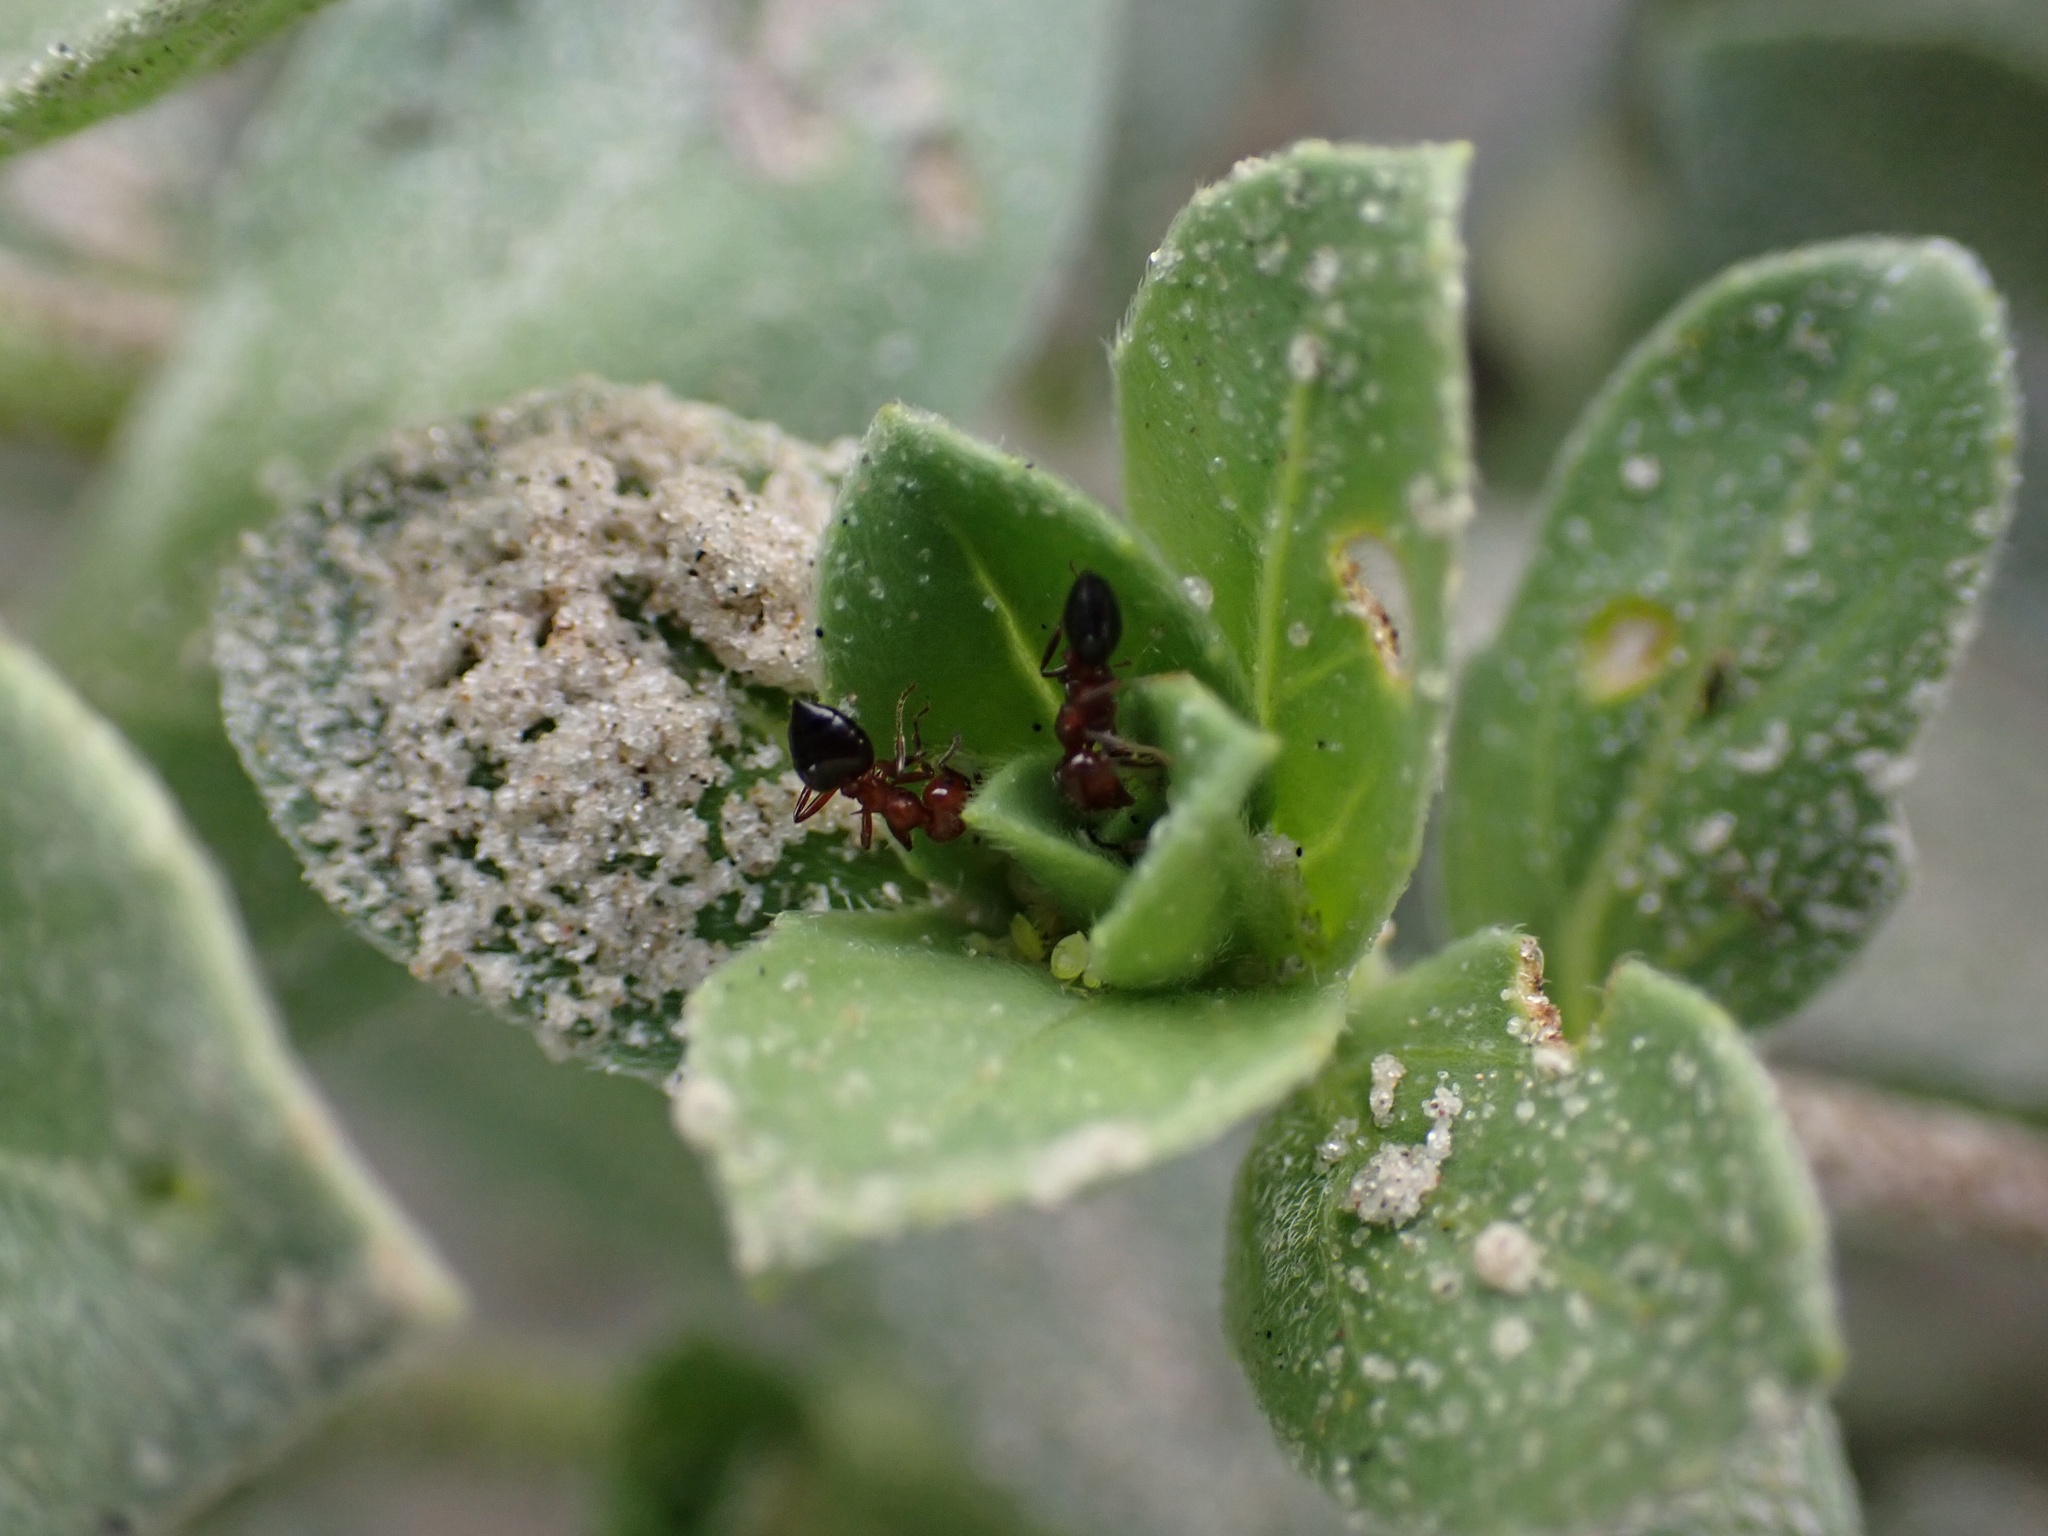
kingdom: Animalia
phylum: Arthropoda
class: Insecta
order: Hymenoptera
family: Formicidae
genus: Crematogaster
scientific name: Crematogaster laeviuscula
